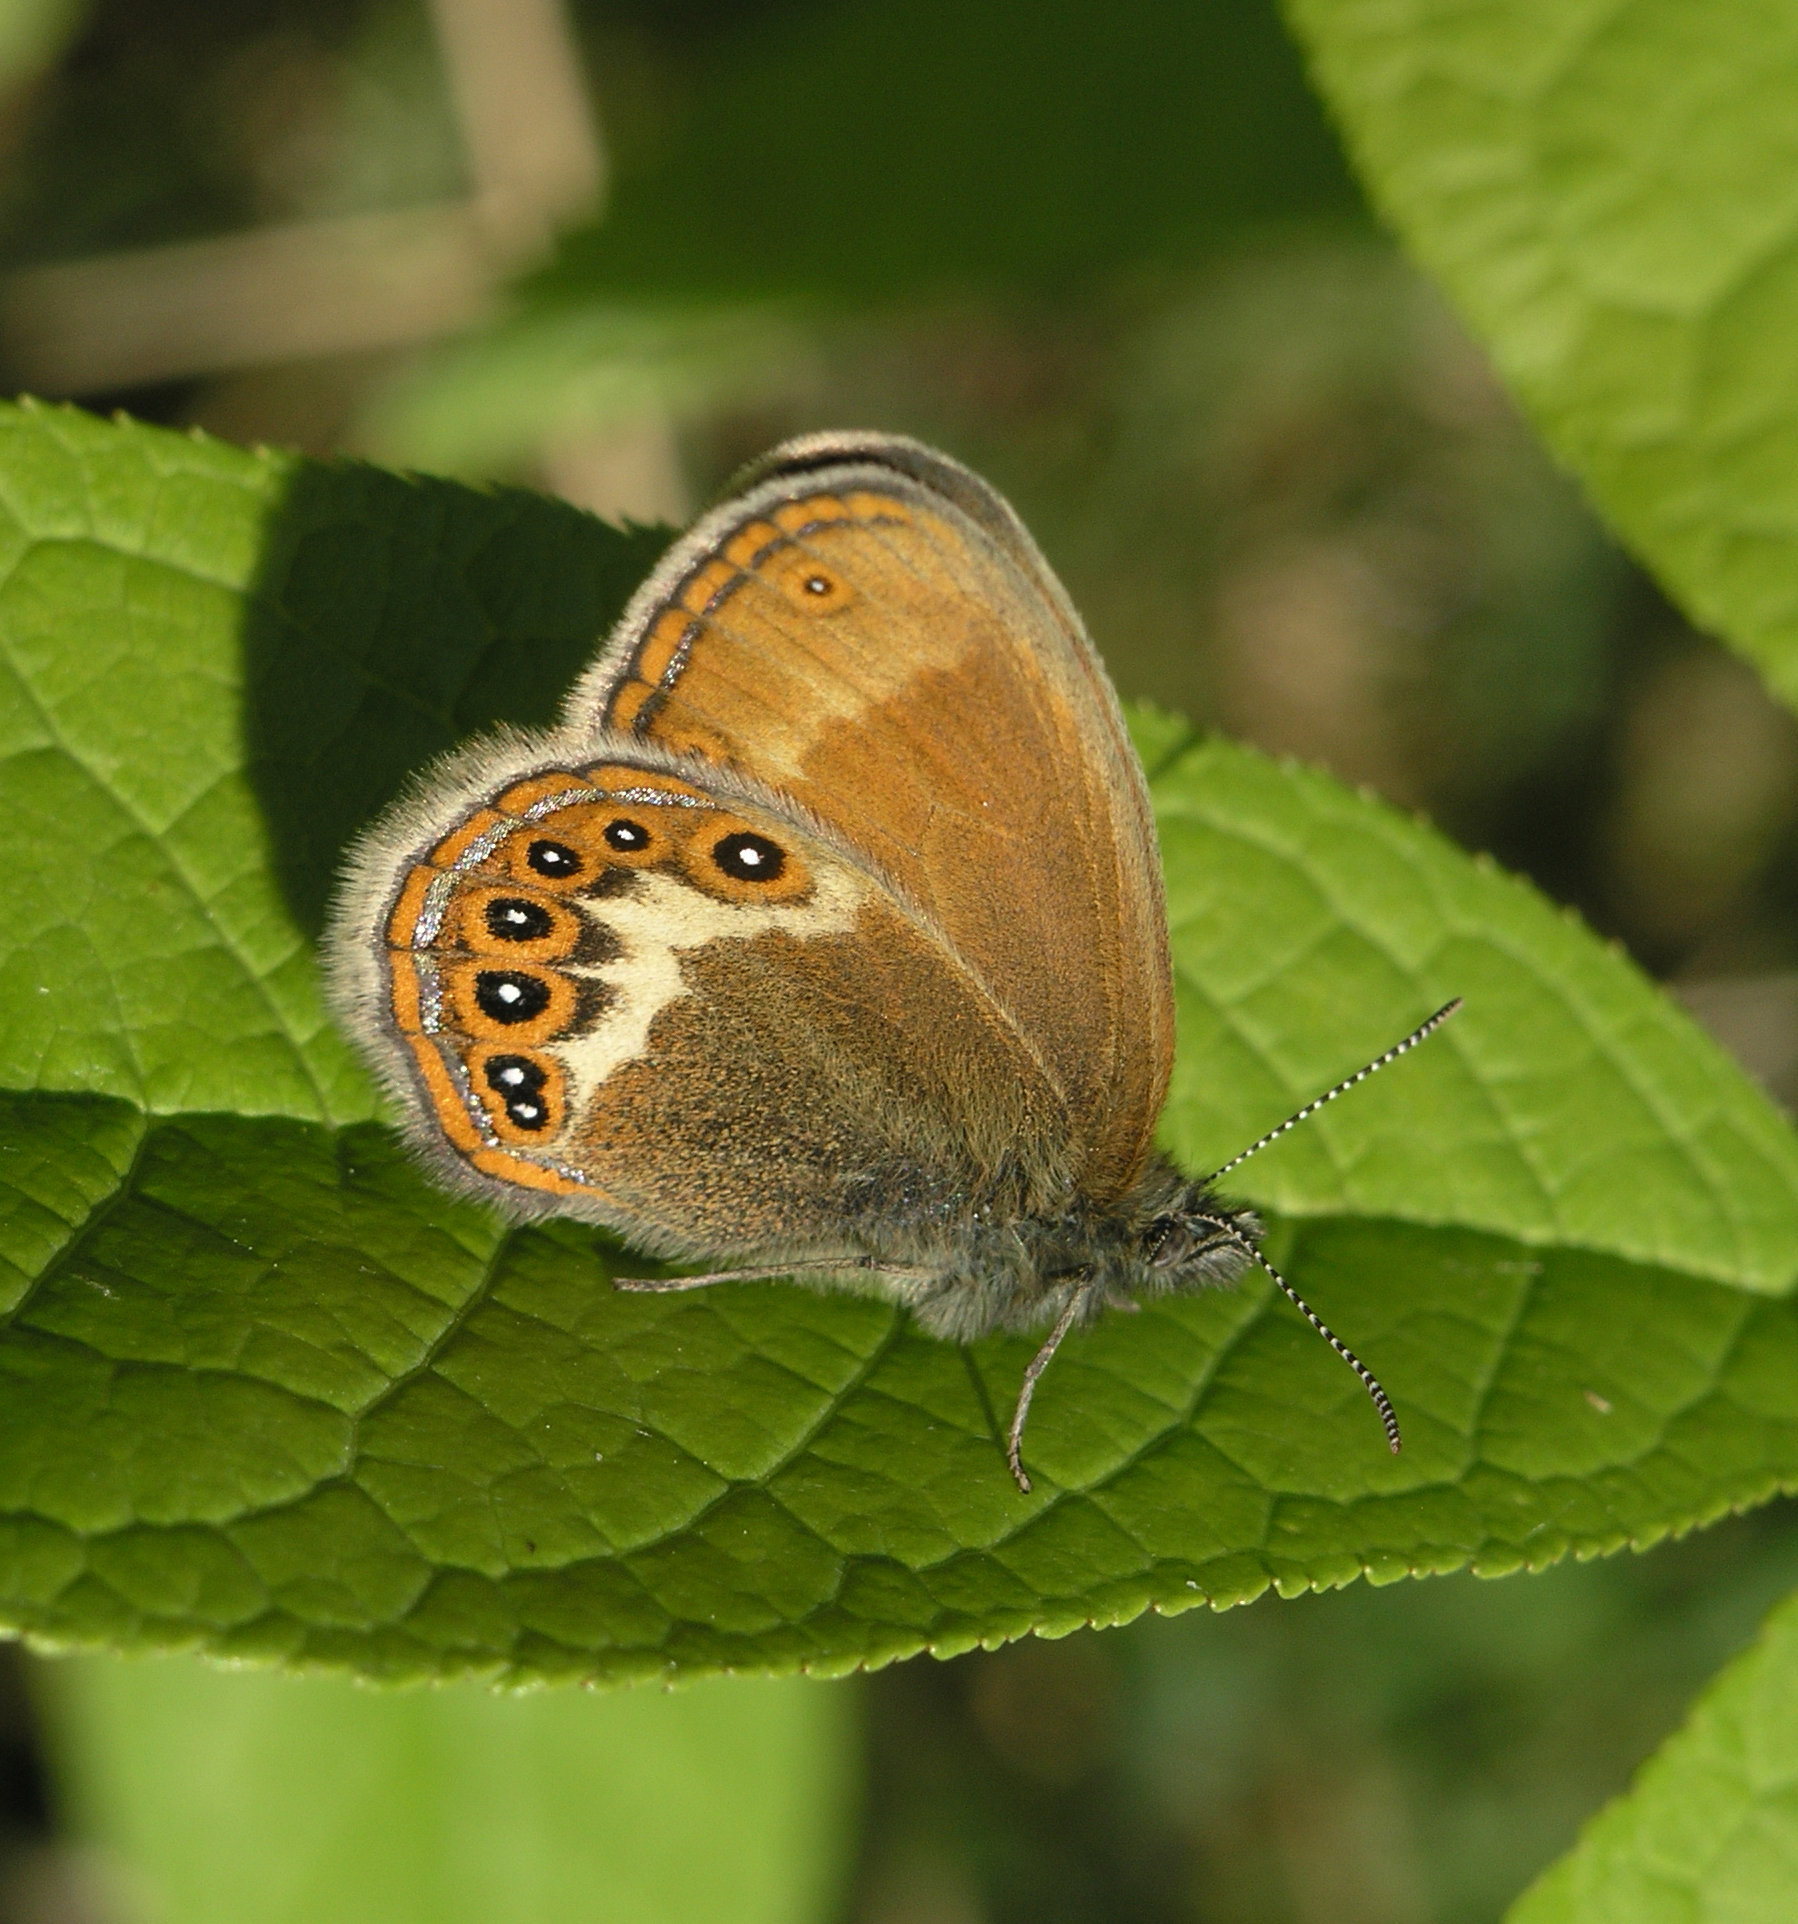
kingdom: Animalia
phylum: Arthropoda
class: Insecta
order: Lepidoptera
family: Nymphalidae
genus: Coenonympha
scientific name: Coenonympha hero
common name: Scarce heath
